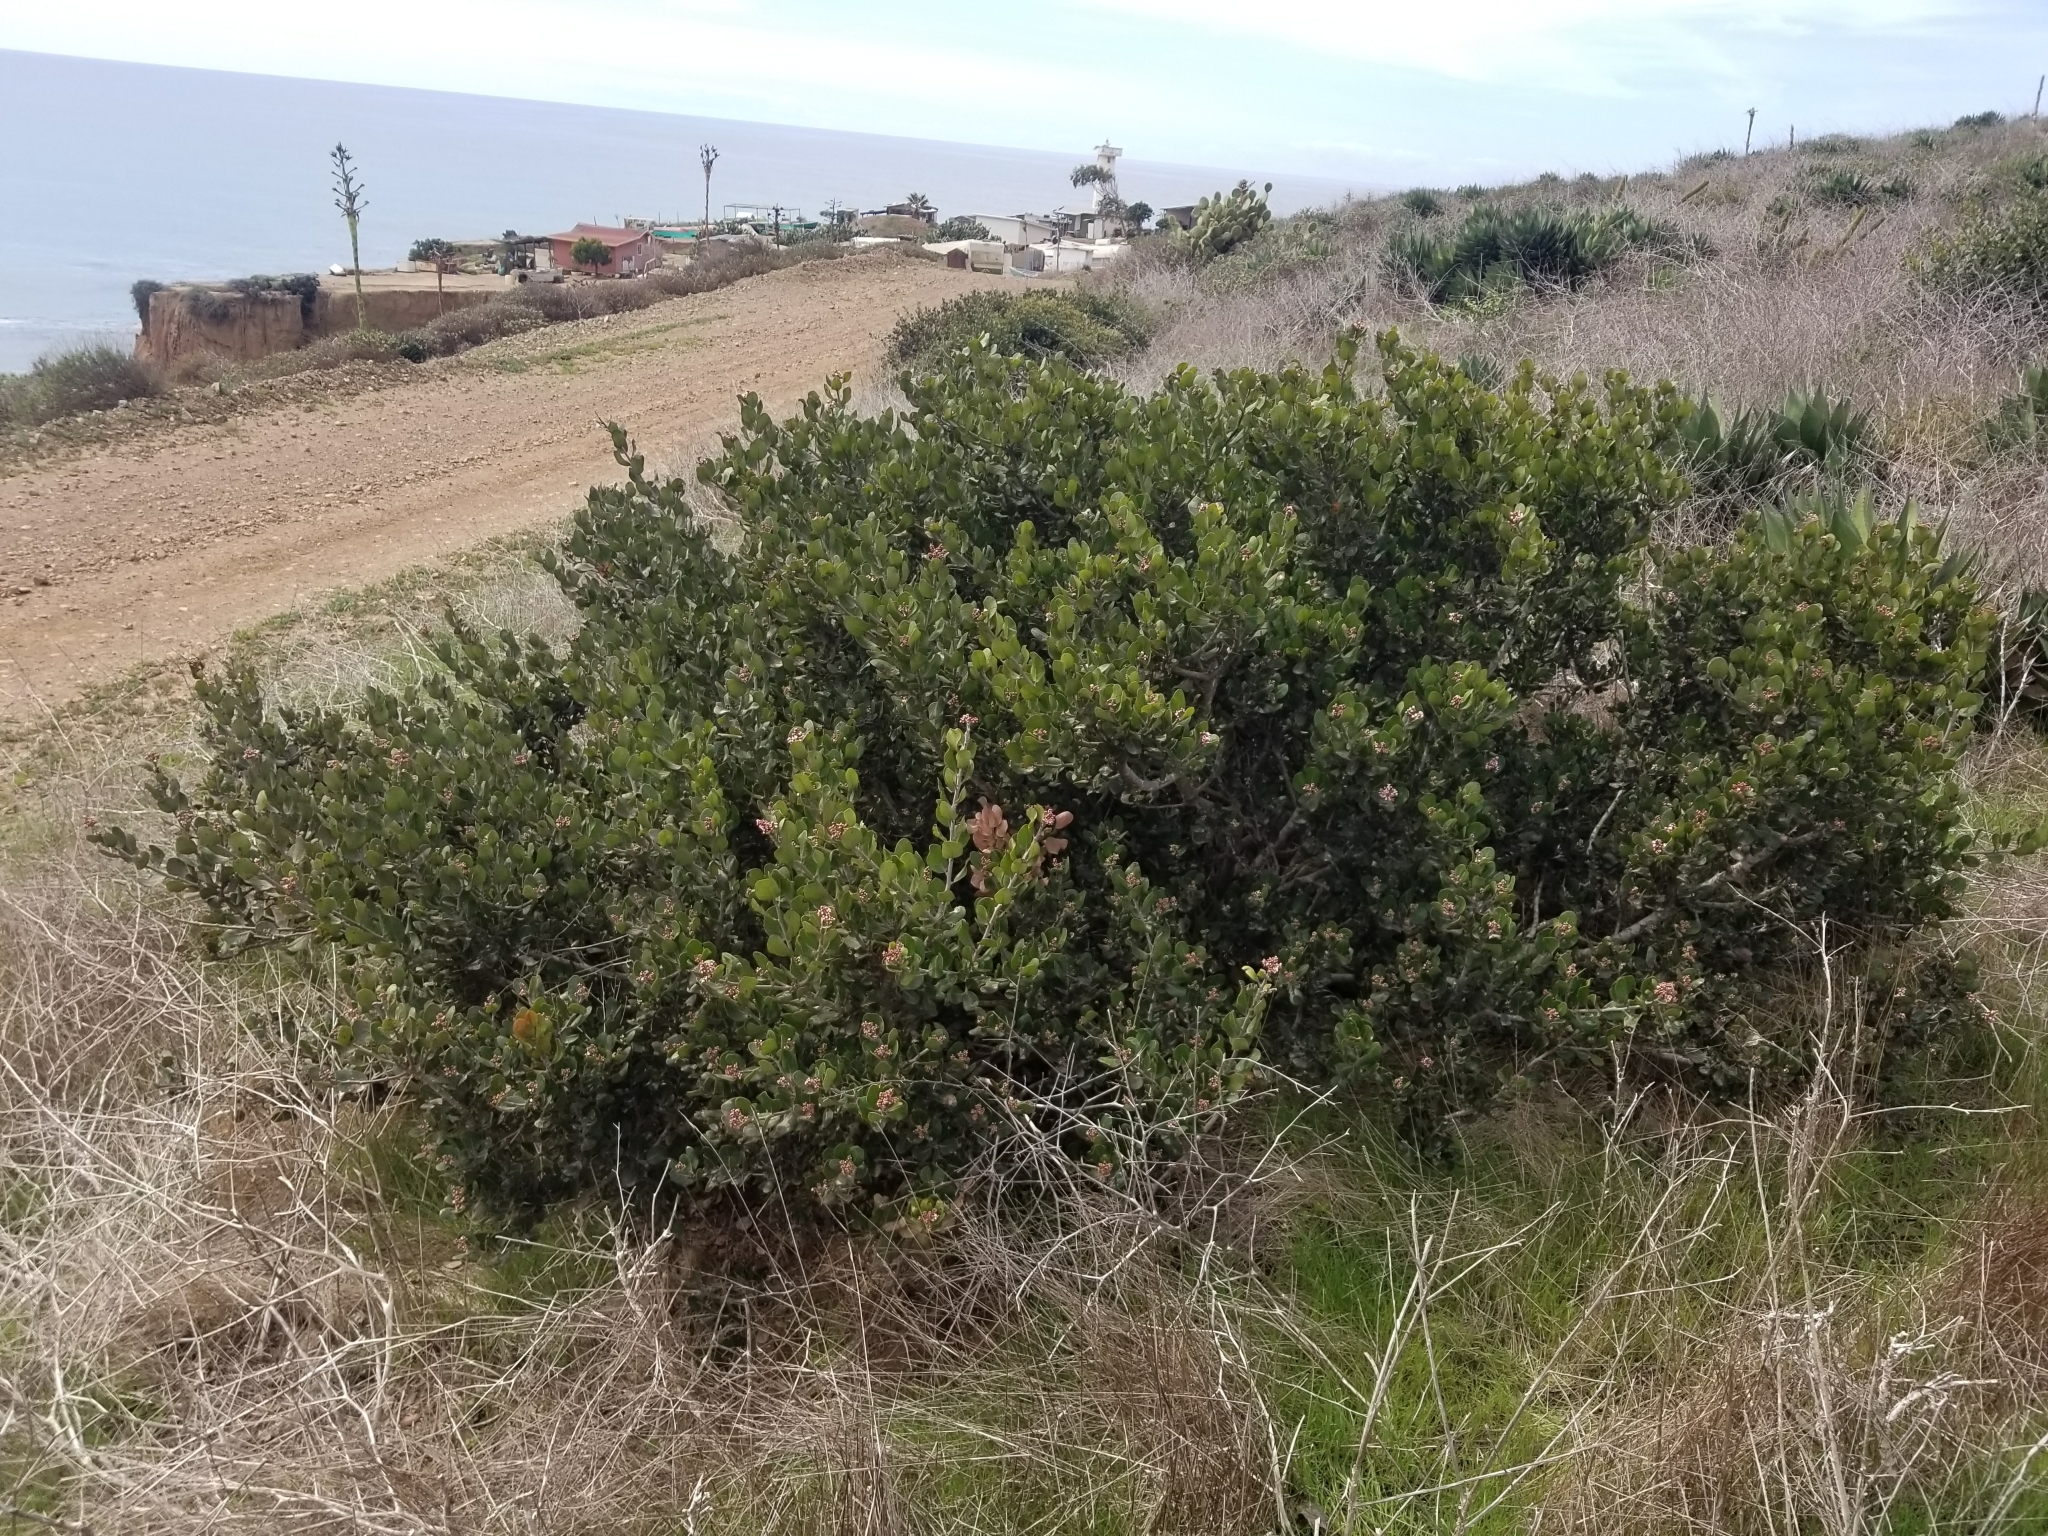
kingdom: Plantae
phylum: Tracheophyta
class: Magnoliopsida
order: Sapindales
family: Anacardiaceae
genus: Rhus
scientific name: Rhus integrifolia
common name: Lemonade sumac
